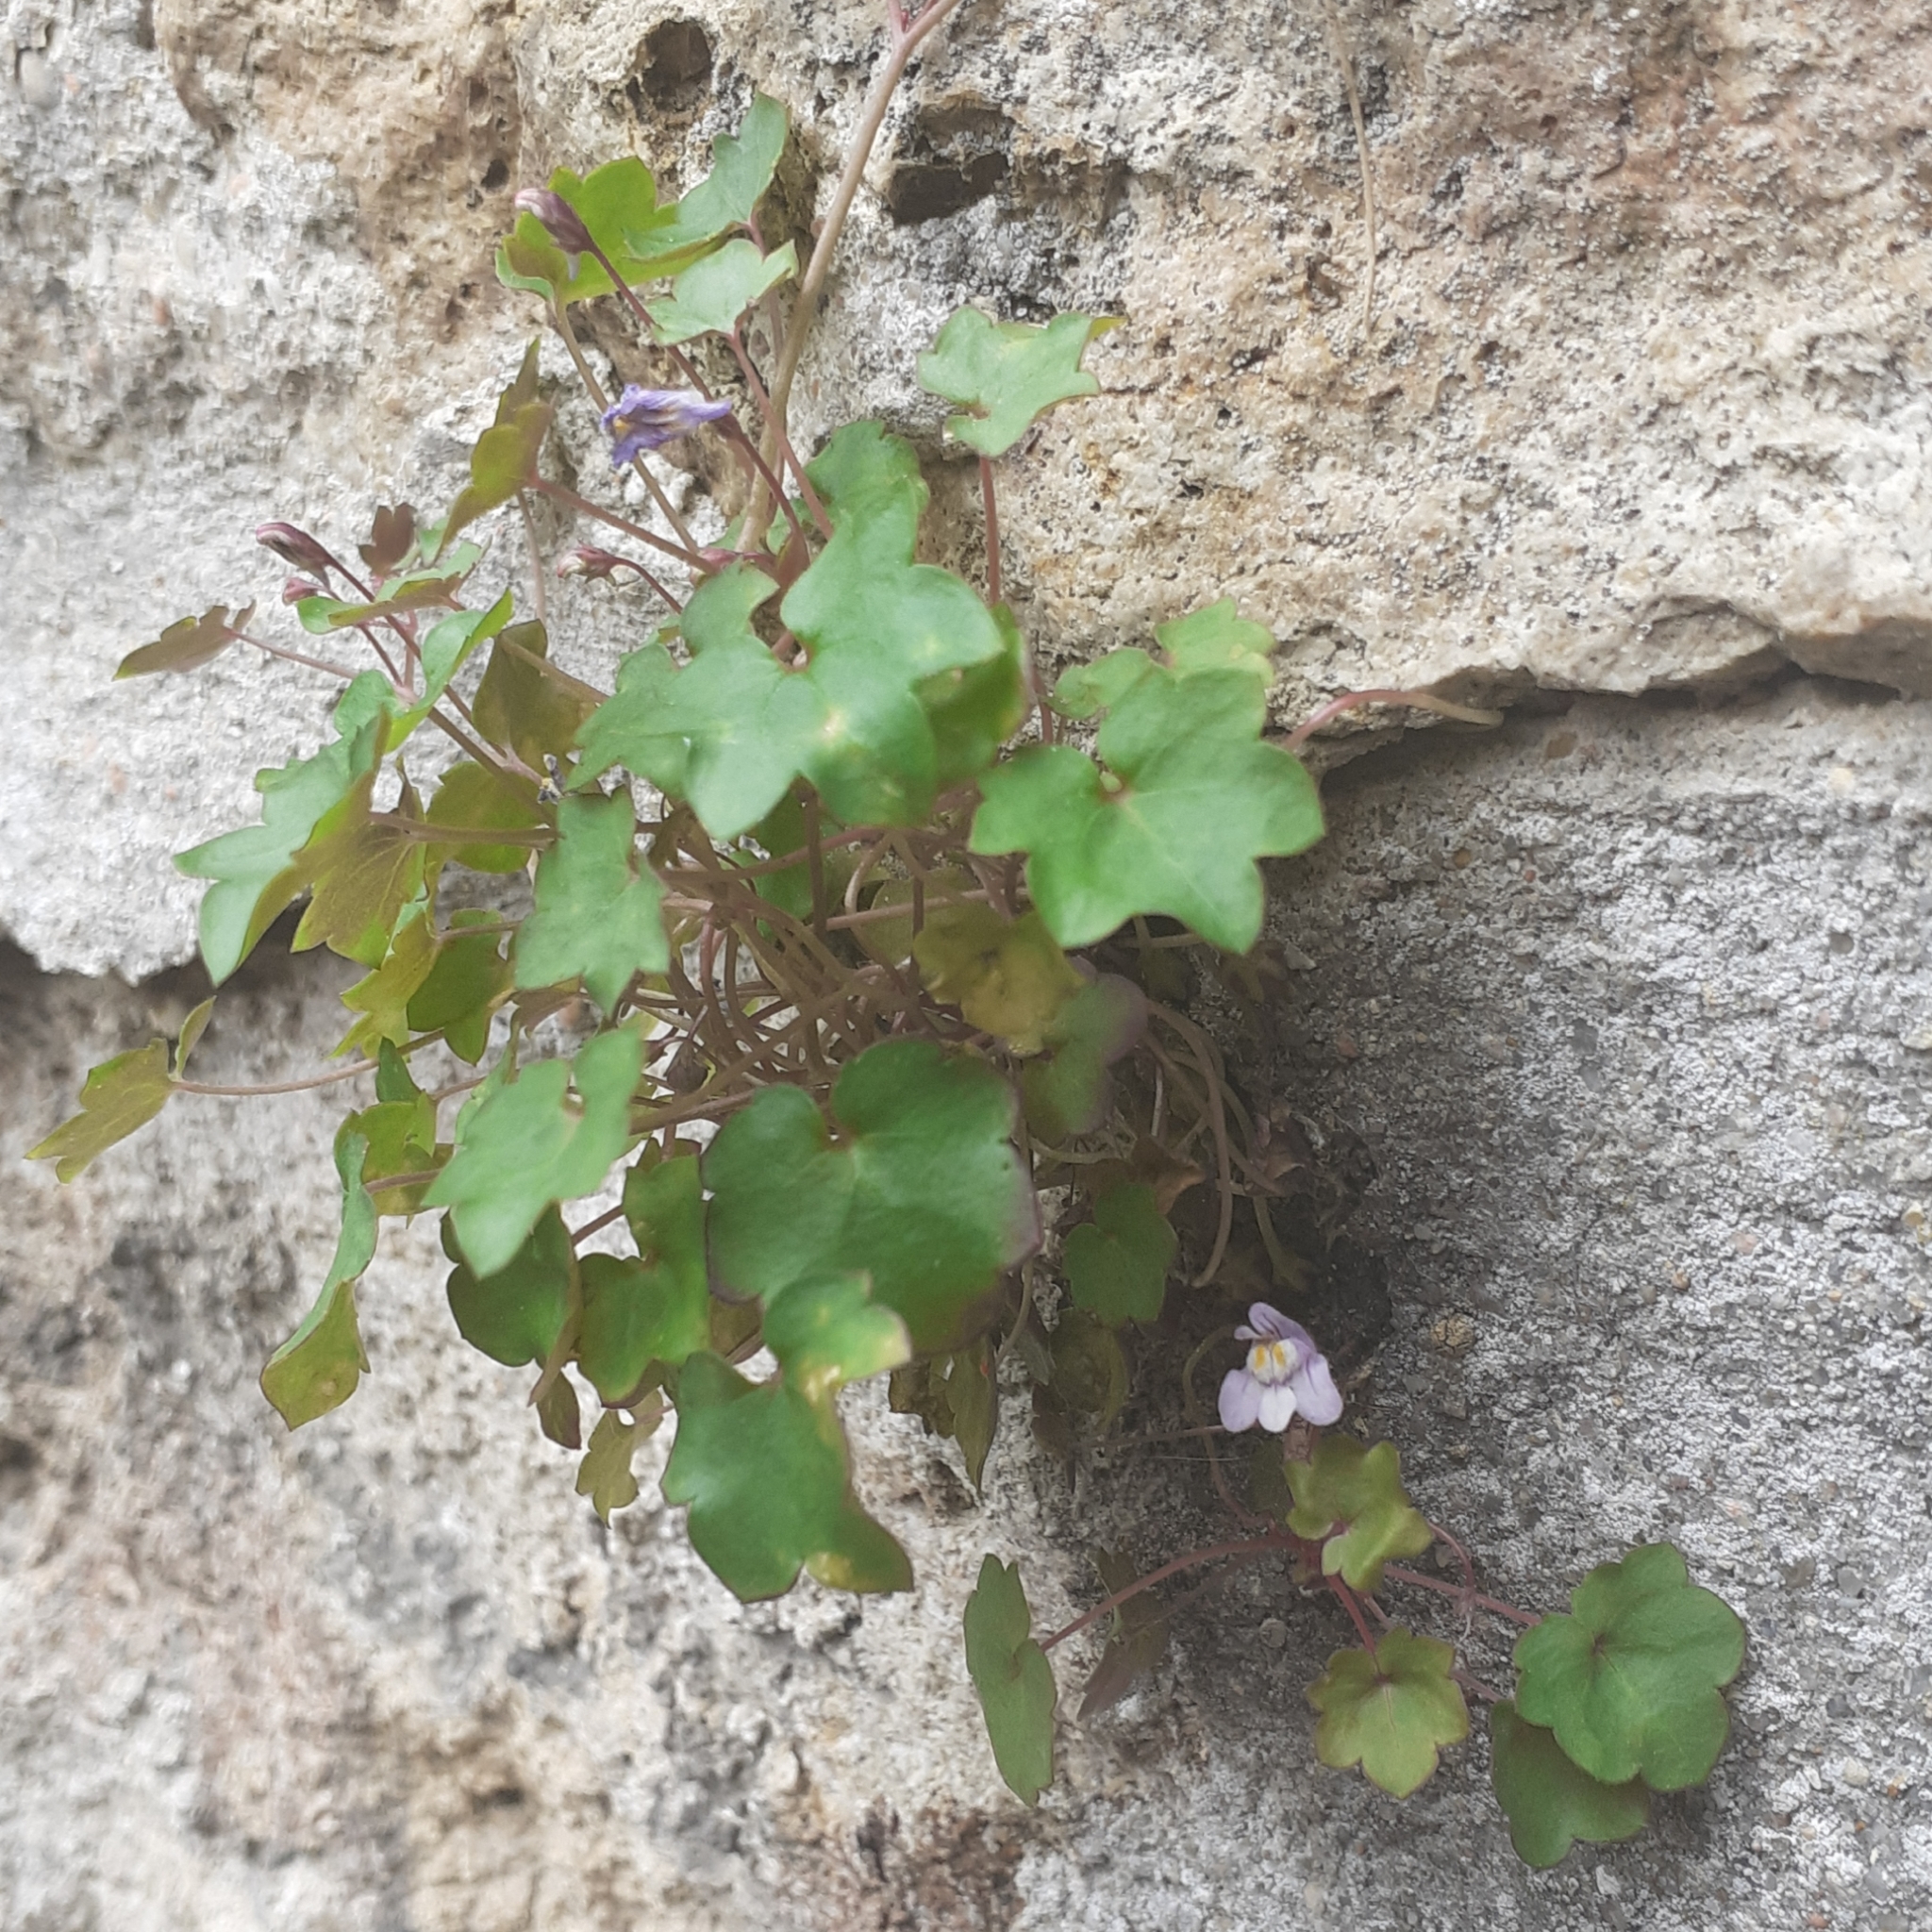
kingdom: Plantae
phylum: Tracheophyta
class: Magnoliopsida
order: Lamiales
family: Plantaginaceae
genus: Cymbalaria
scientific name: Cymbalaria muralis
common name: Ivy-leaved toadflax
